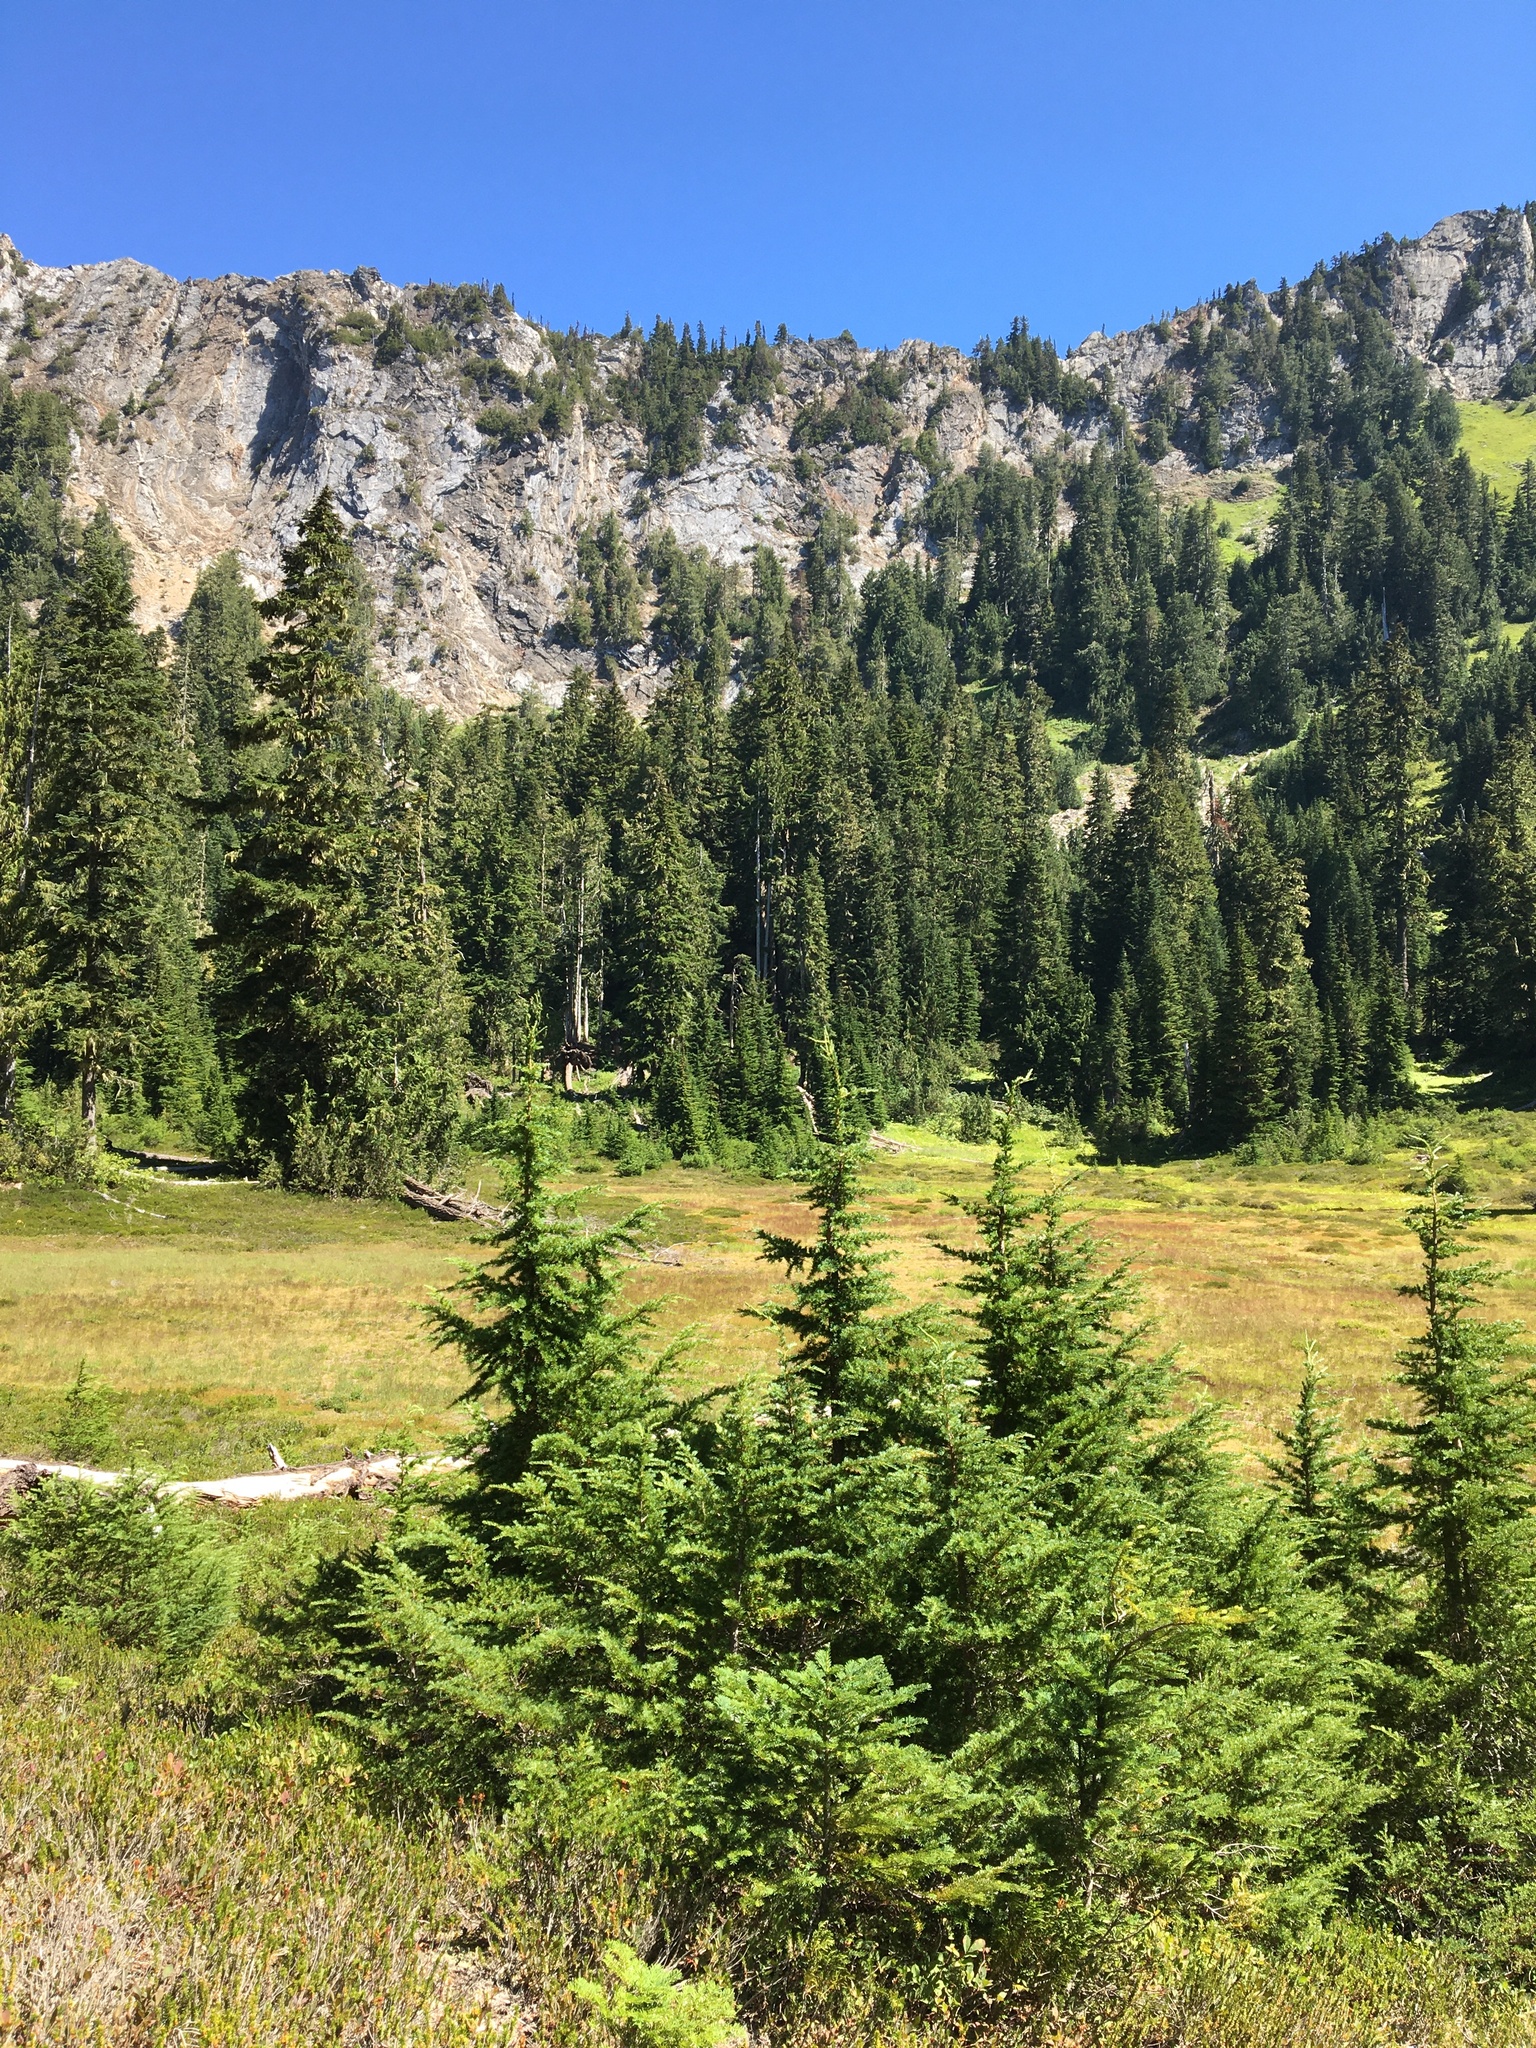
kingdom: Plantae
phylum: Tracheophyta
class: Pinopsida
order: Pinales
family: Pinaceae
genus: Tsuga
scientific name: Tsuga mertensiana
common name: Mountain hemlock
